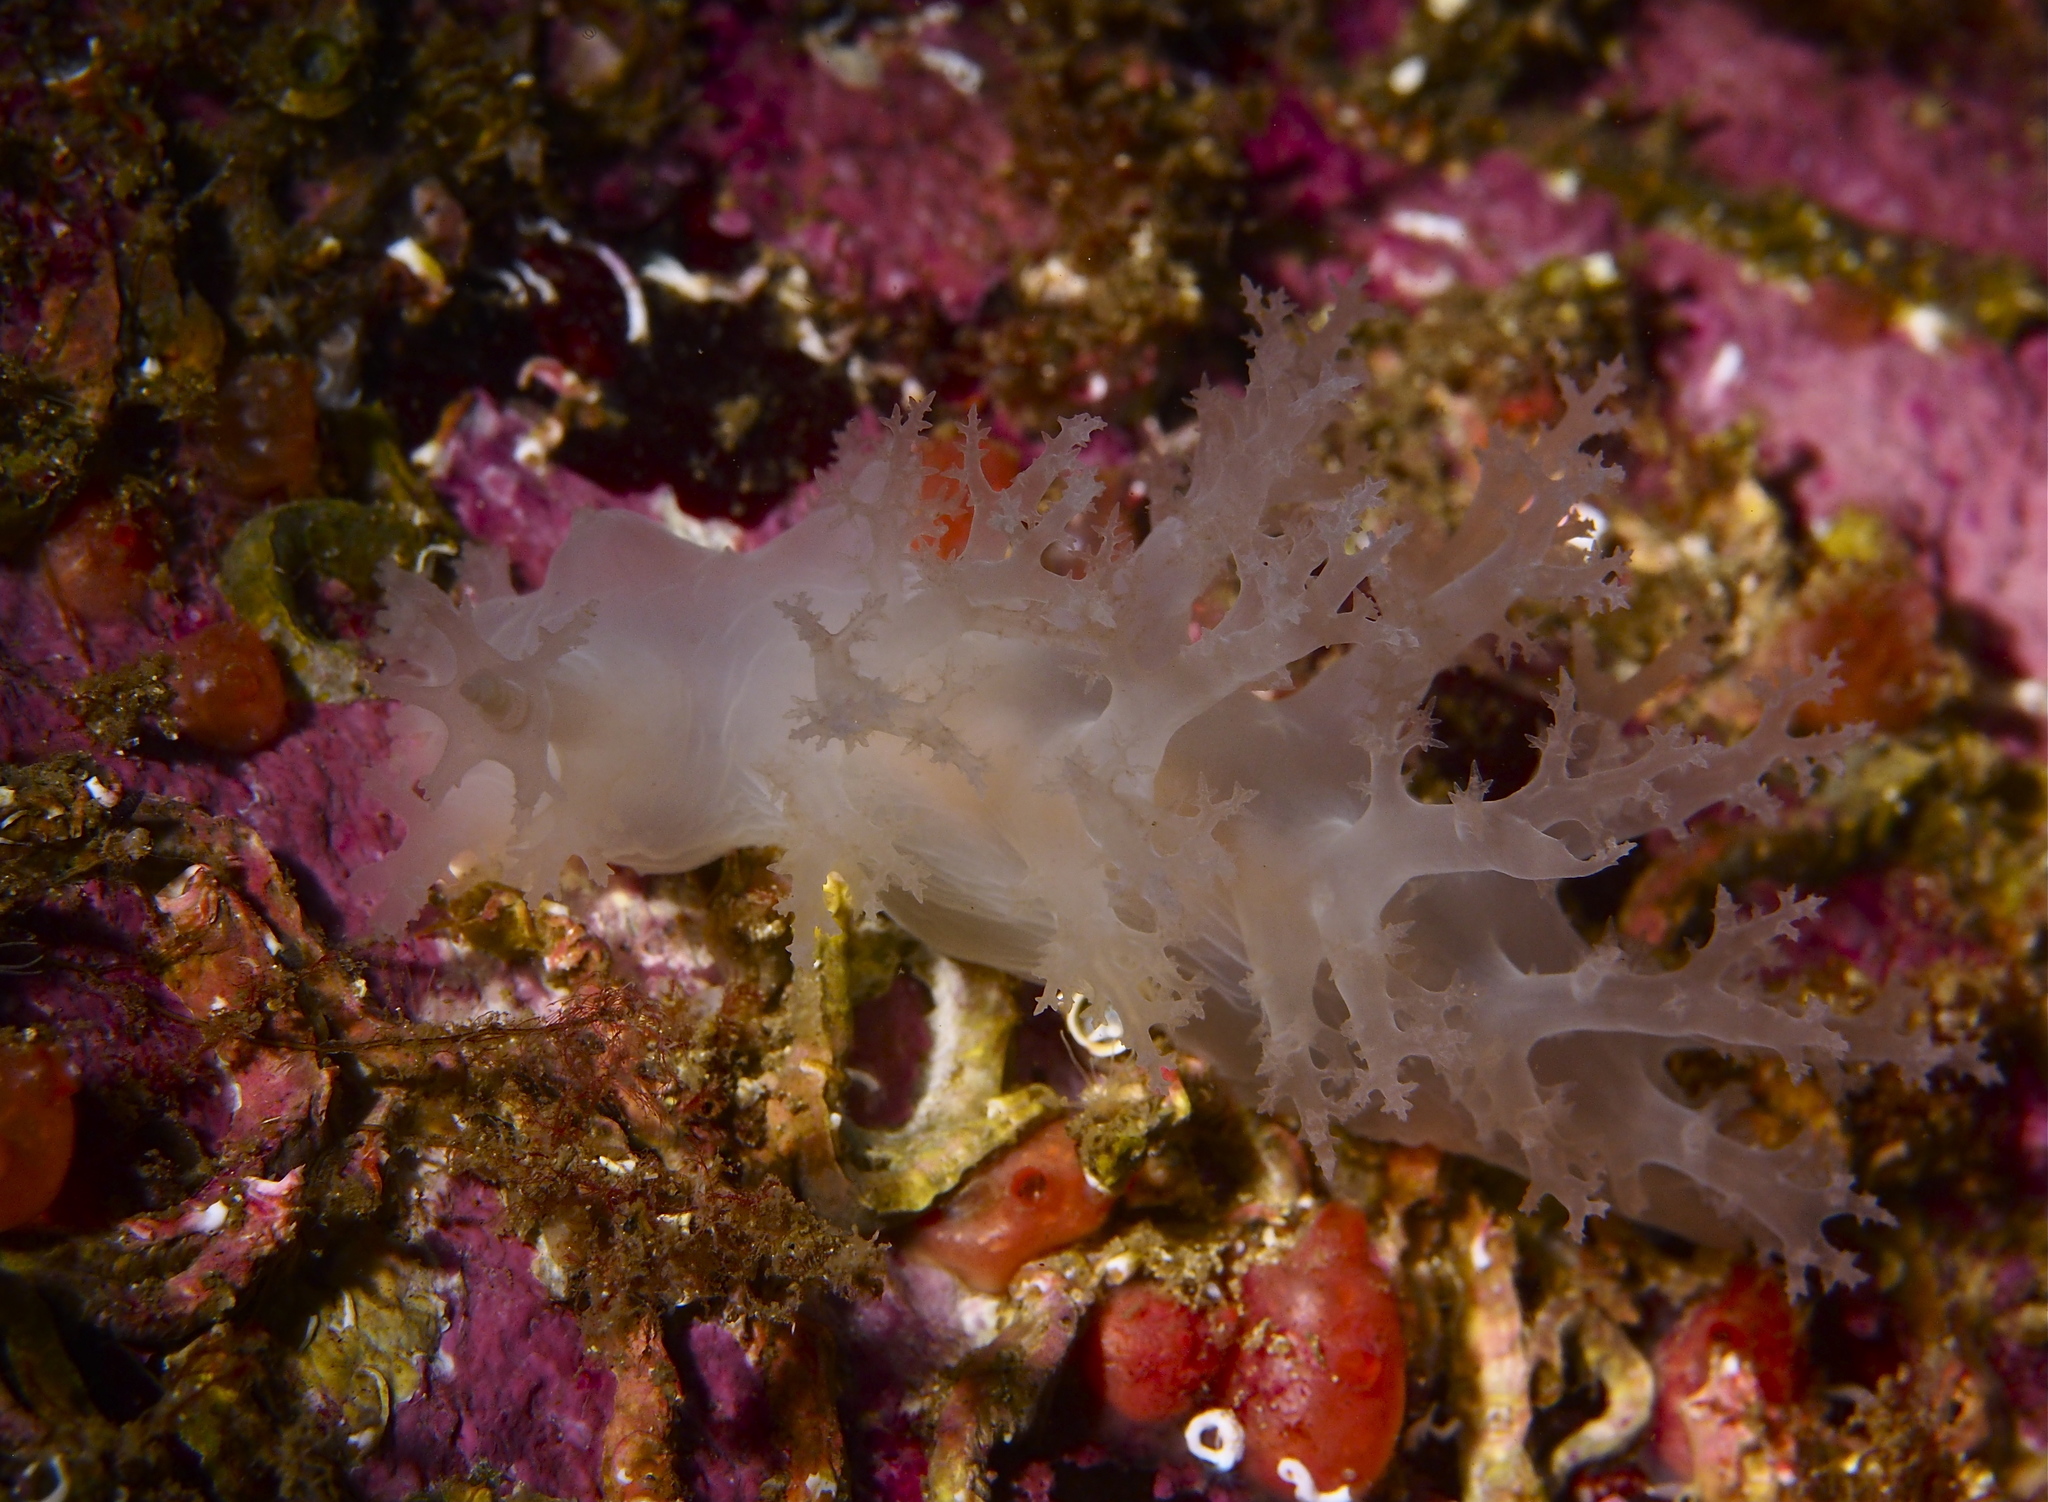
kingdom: Animalia
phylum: Mollusca
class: Gastropoda
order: Nudibranchia
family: Dendronotidae
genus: Dendronotus
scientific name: Dendronotus lacteus
